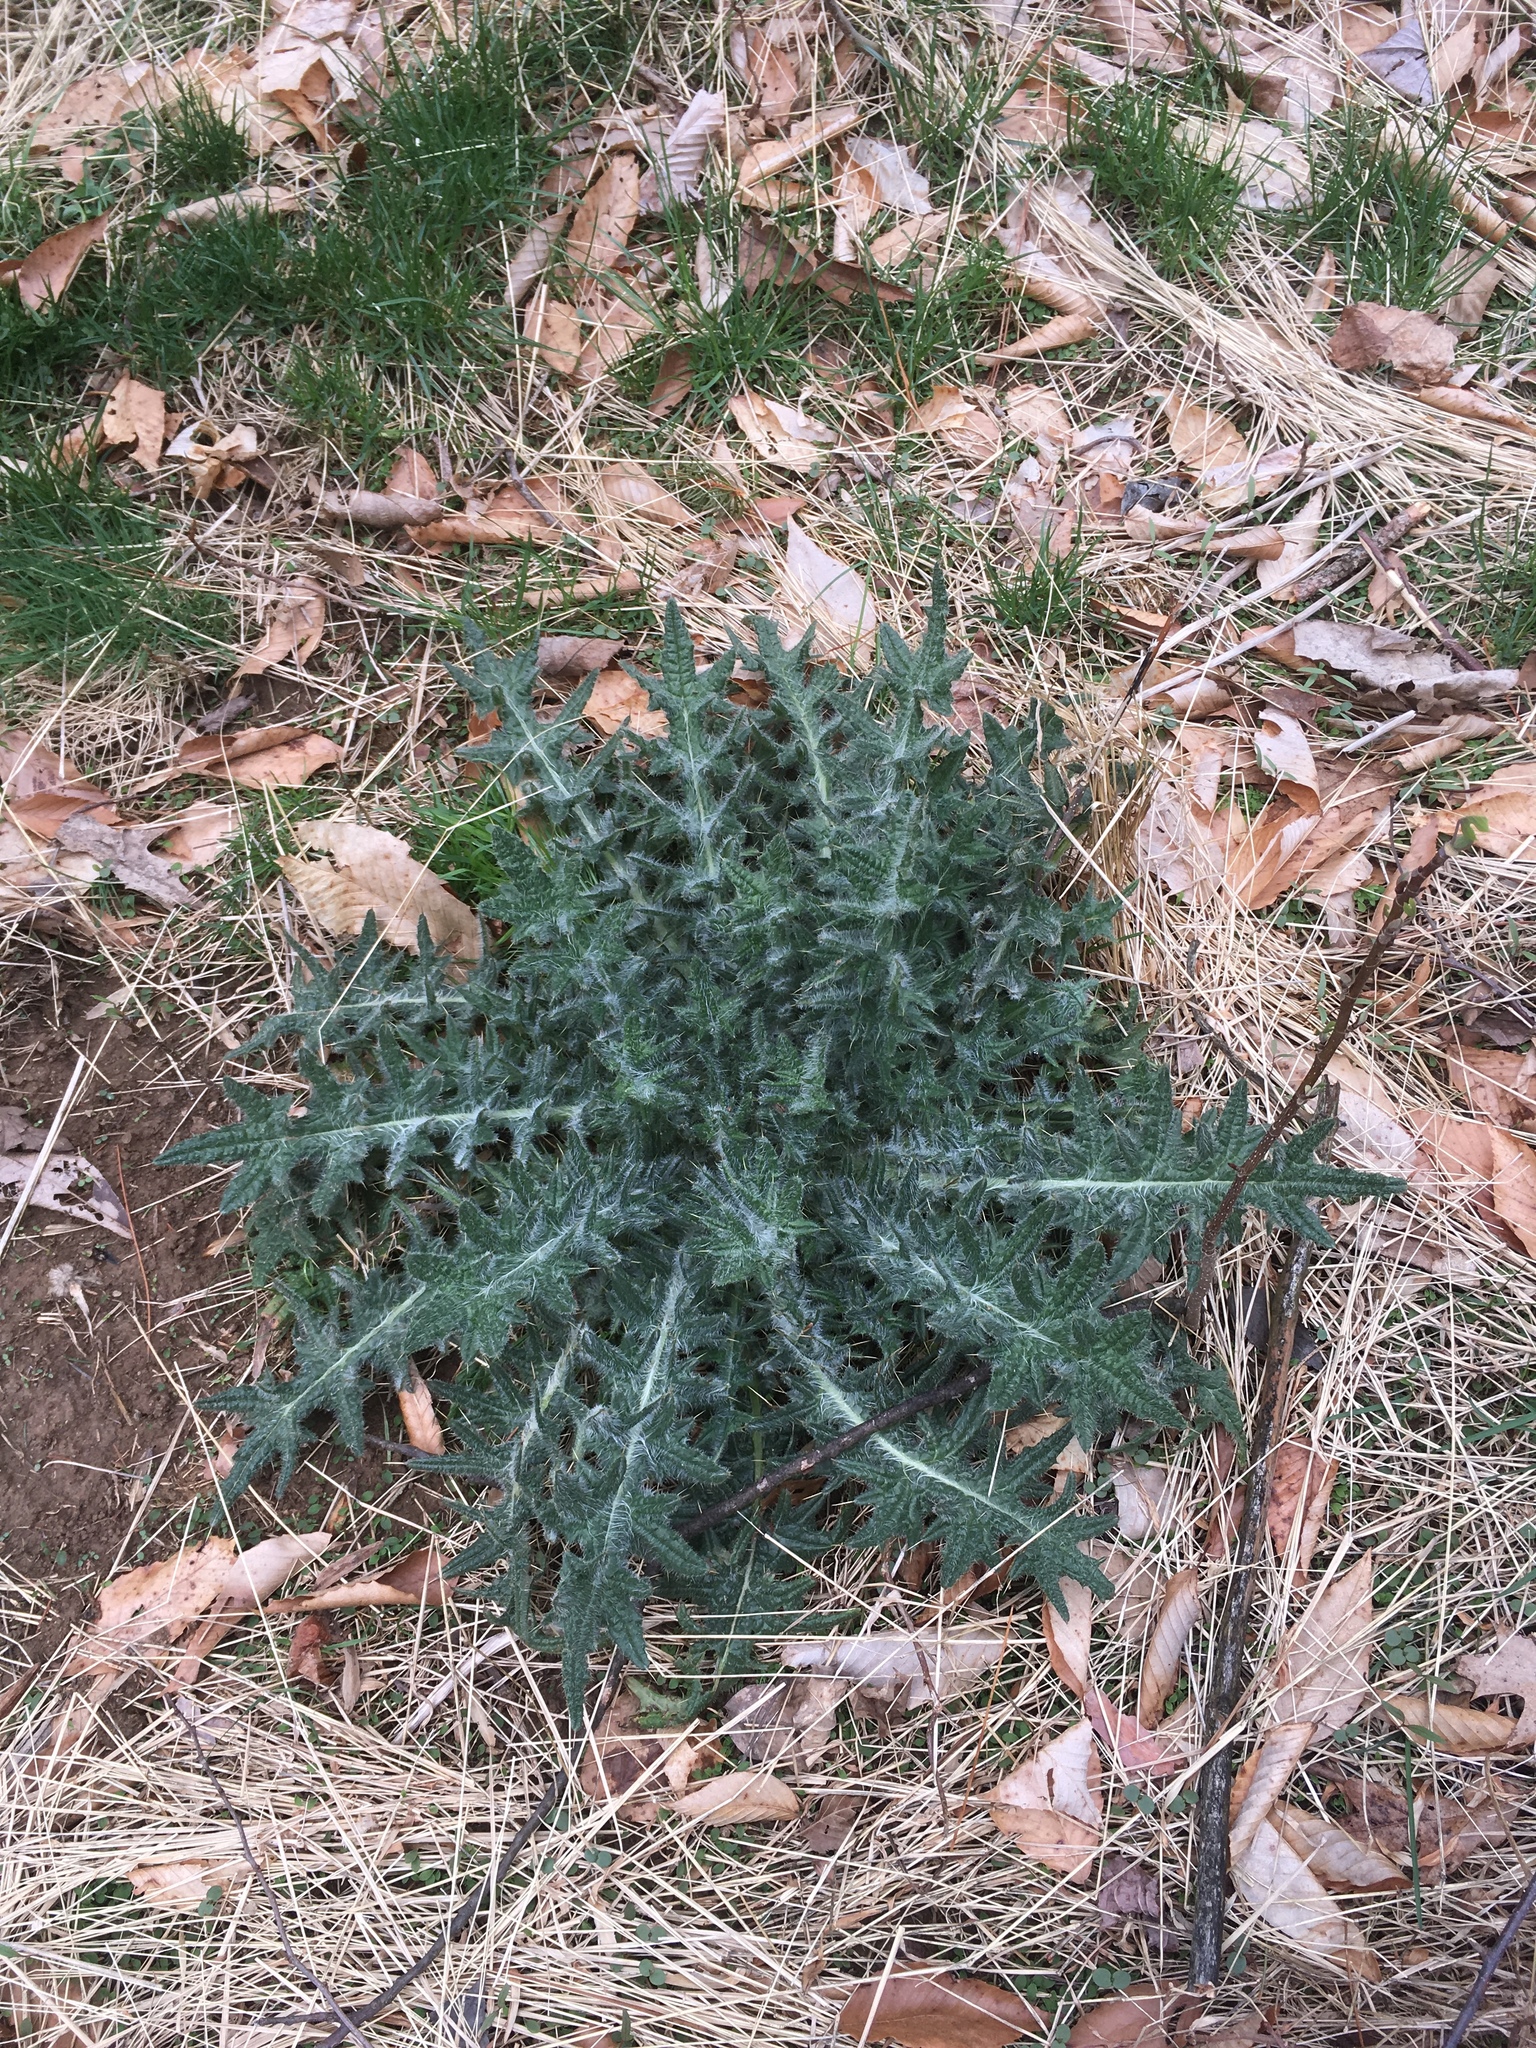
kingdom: Plantae
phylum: Tracheophyta
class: Magnoliopsida
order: Asterales
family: Asteraceae
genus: Cirsium
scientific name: Cirsium vulgare
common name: Bull thistle
